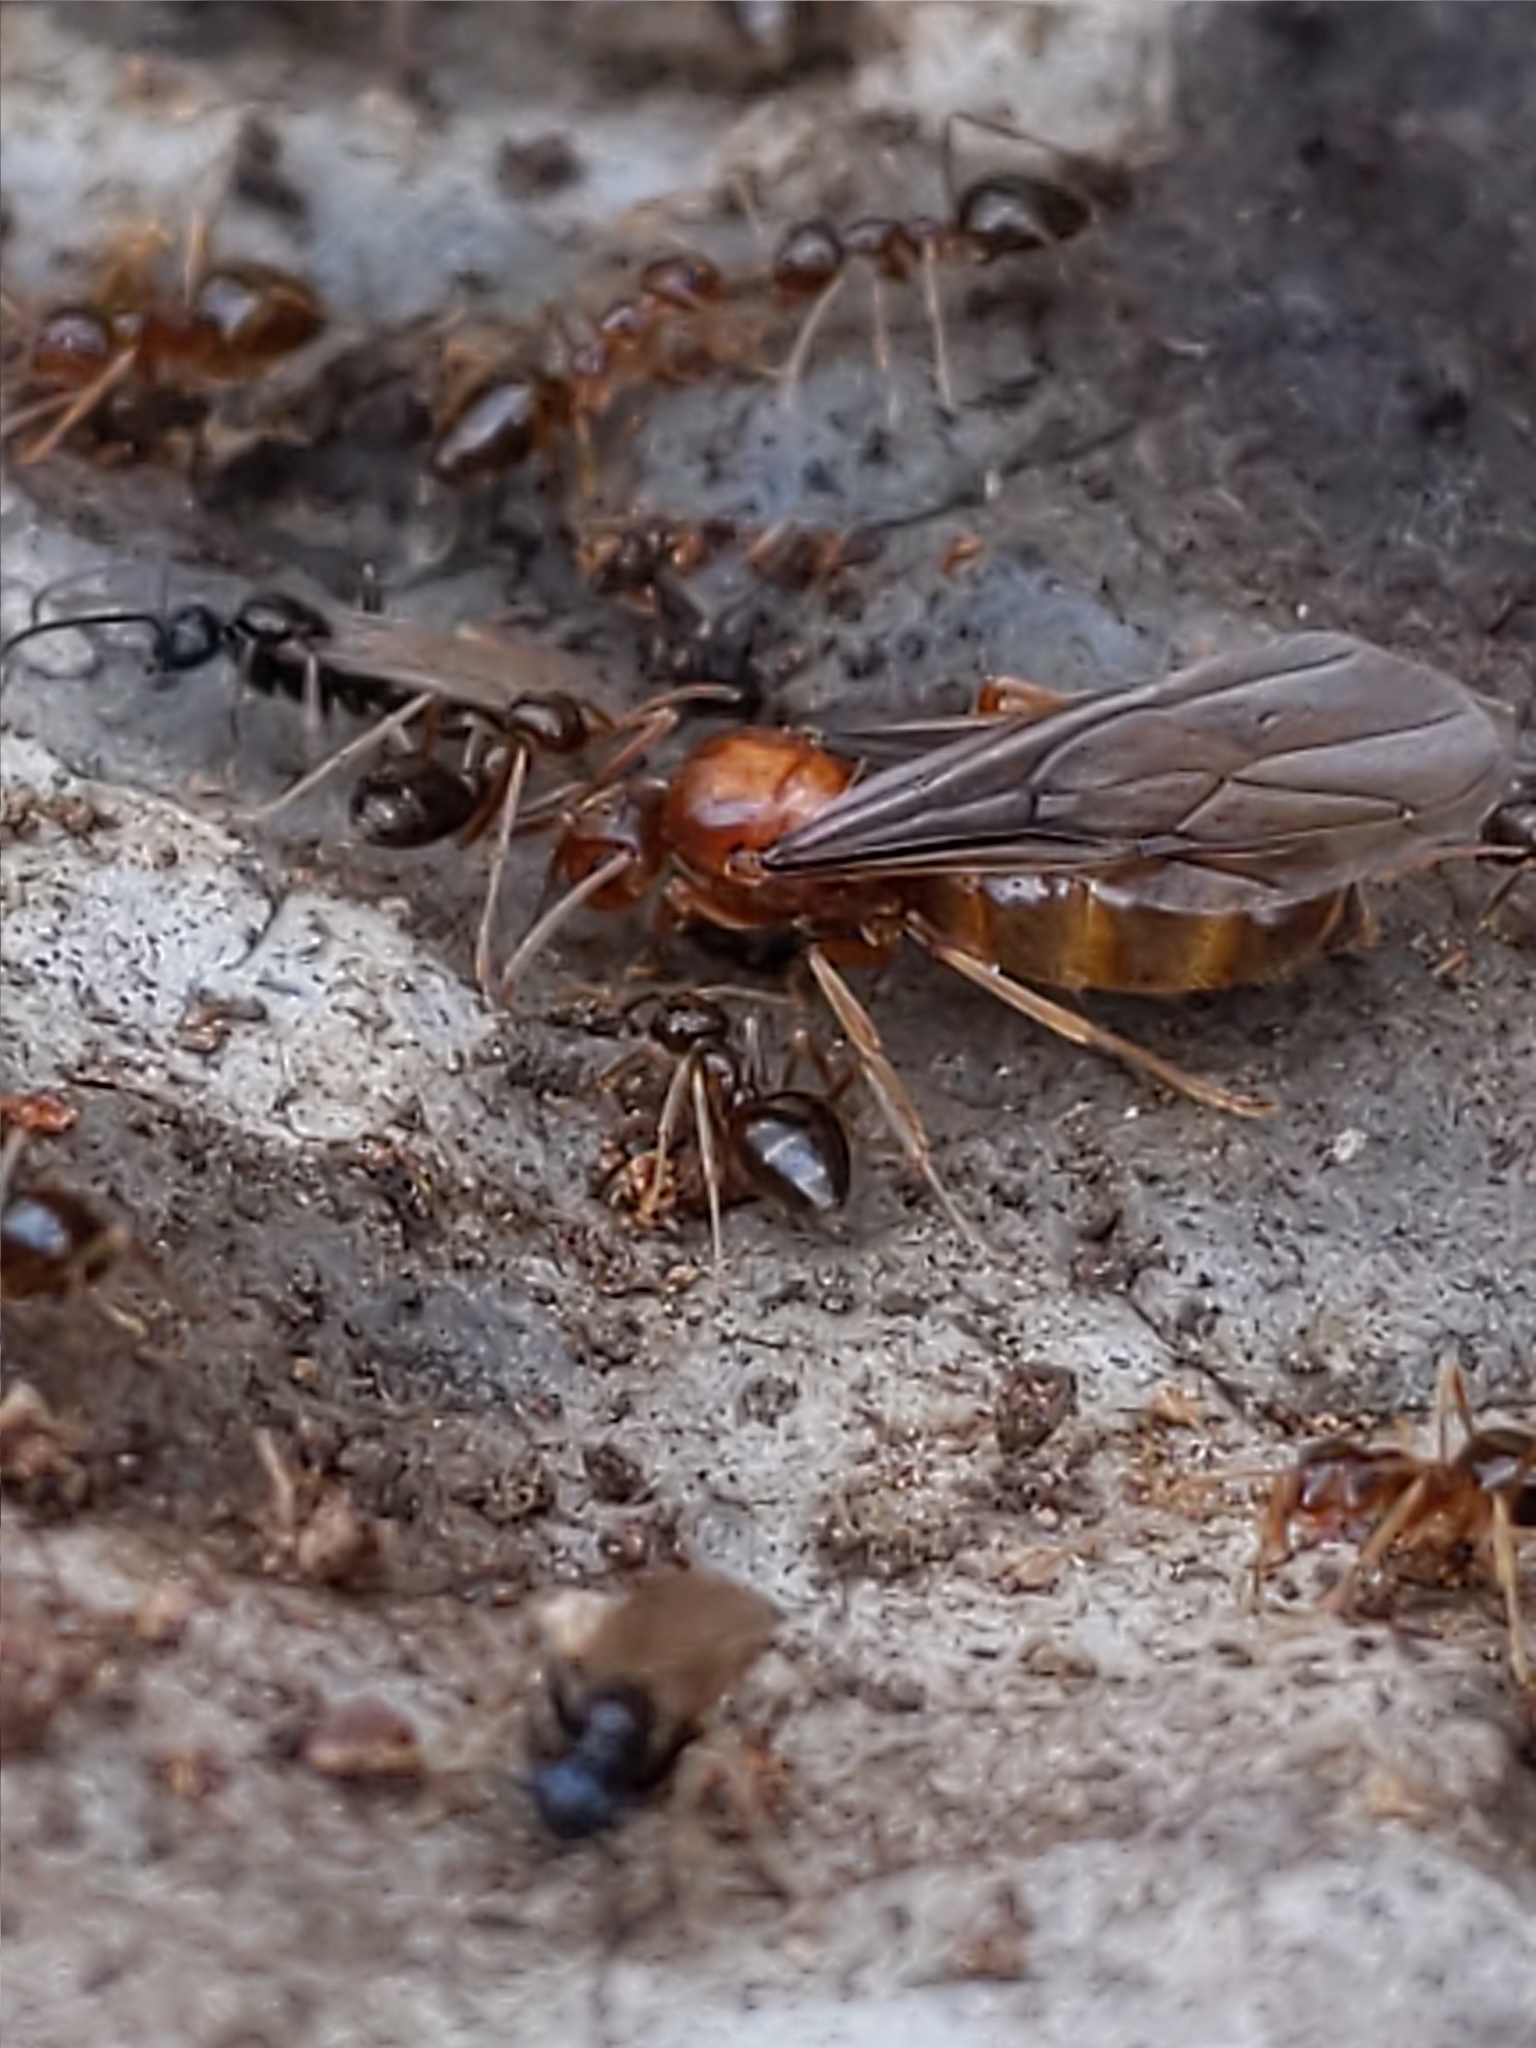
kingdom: Animalia
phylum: Arthropoda
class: Insecta
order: Hymenoptera
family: Formicidae
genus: Prenolepis
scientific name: Prenolepis imparis
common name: Small honey ant
